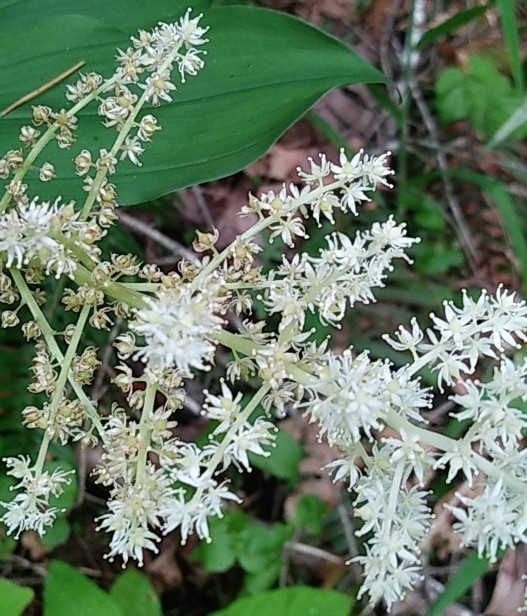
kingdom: Plantae
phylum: Tracheophyta
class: Liliopsida
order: Asparagales
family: Asparagaceae
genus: Maianthemum
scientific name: Maianthemum racemosum
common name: False spikenard
